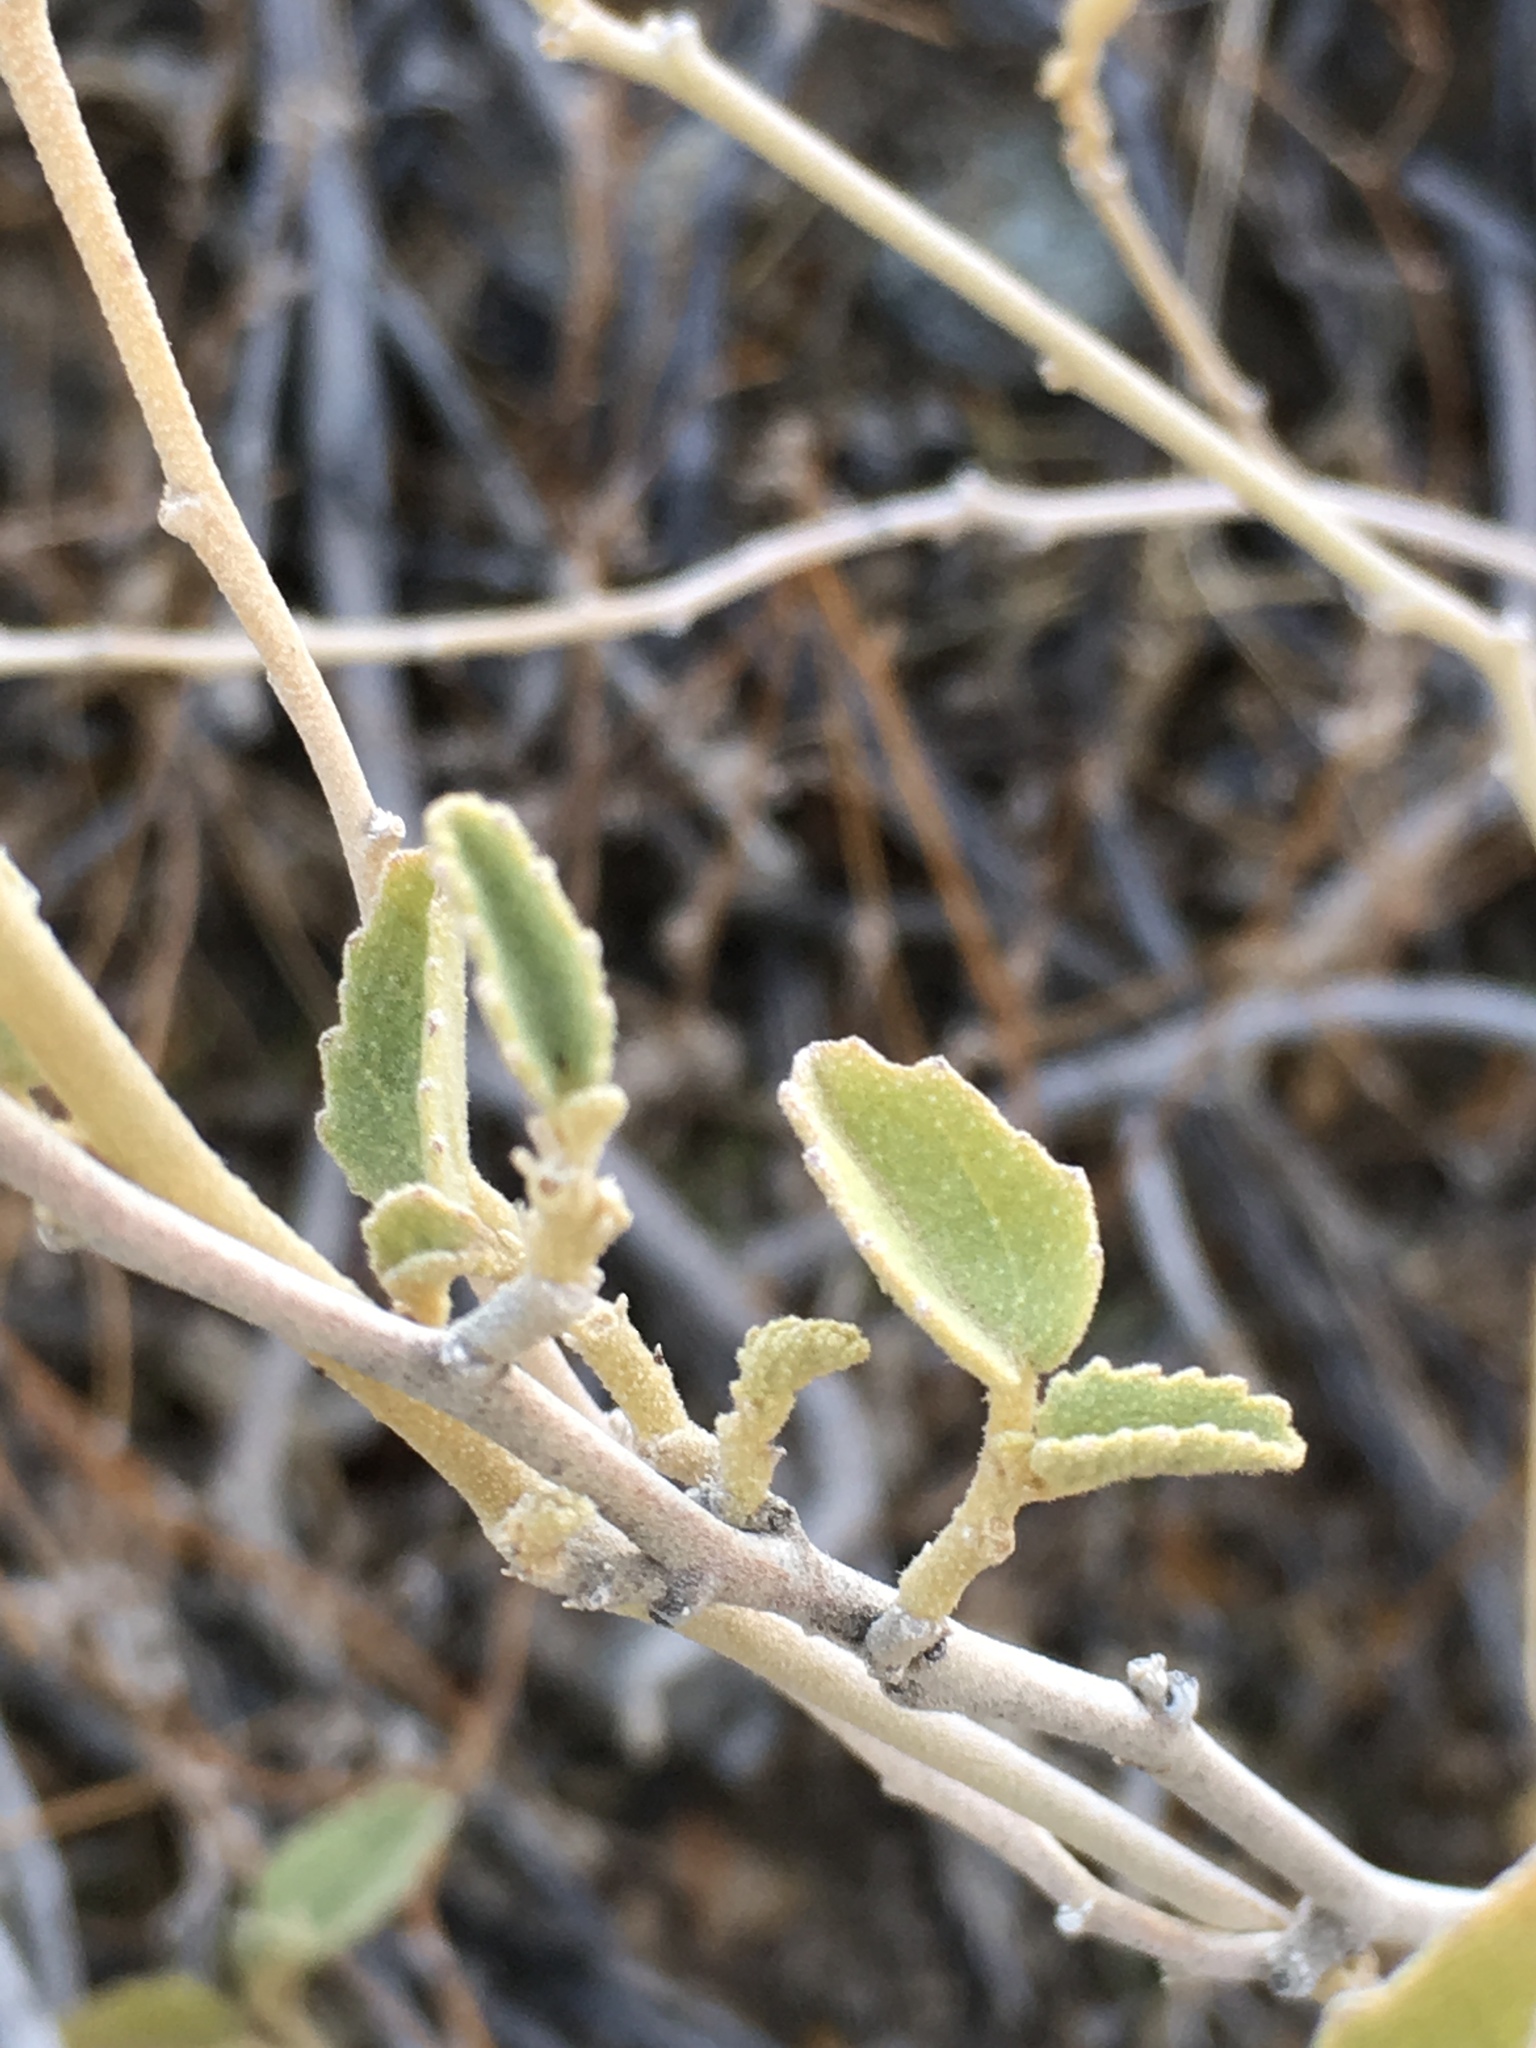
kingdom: Plantae
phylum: Tracheophyta
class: Magnoliopsida
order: Malvales
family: Malvaceae
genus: Hibiscus
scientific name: Hibiscus denudatus
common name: Paleface
